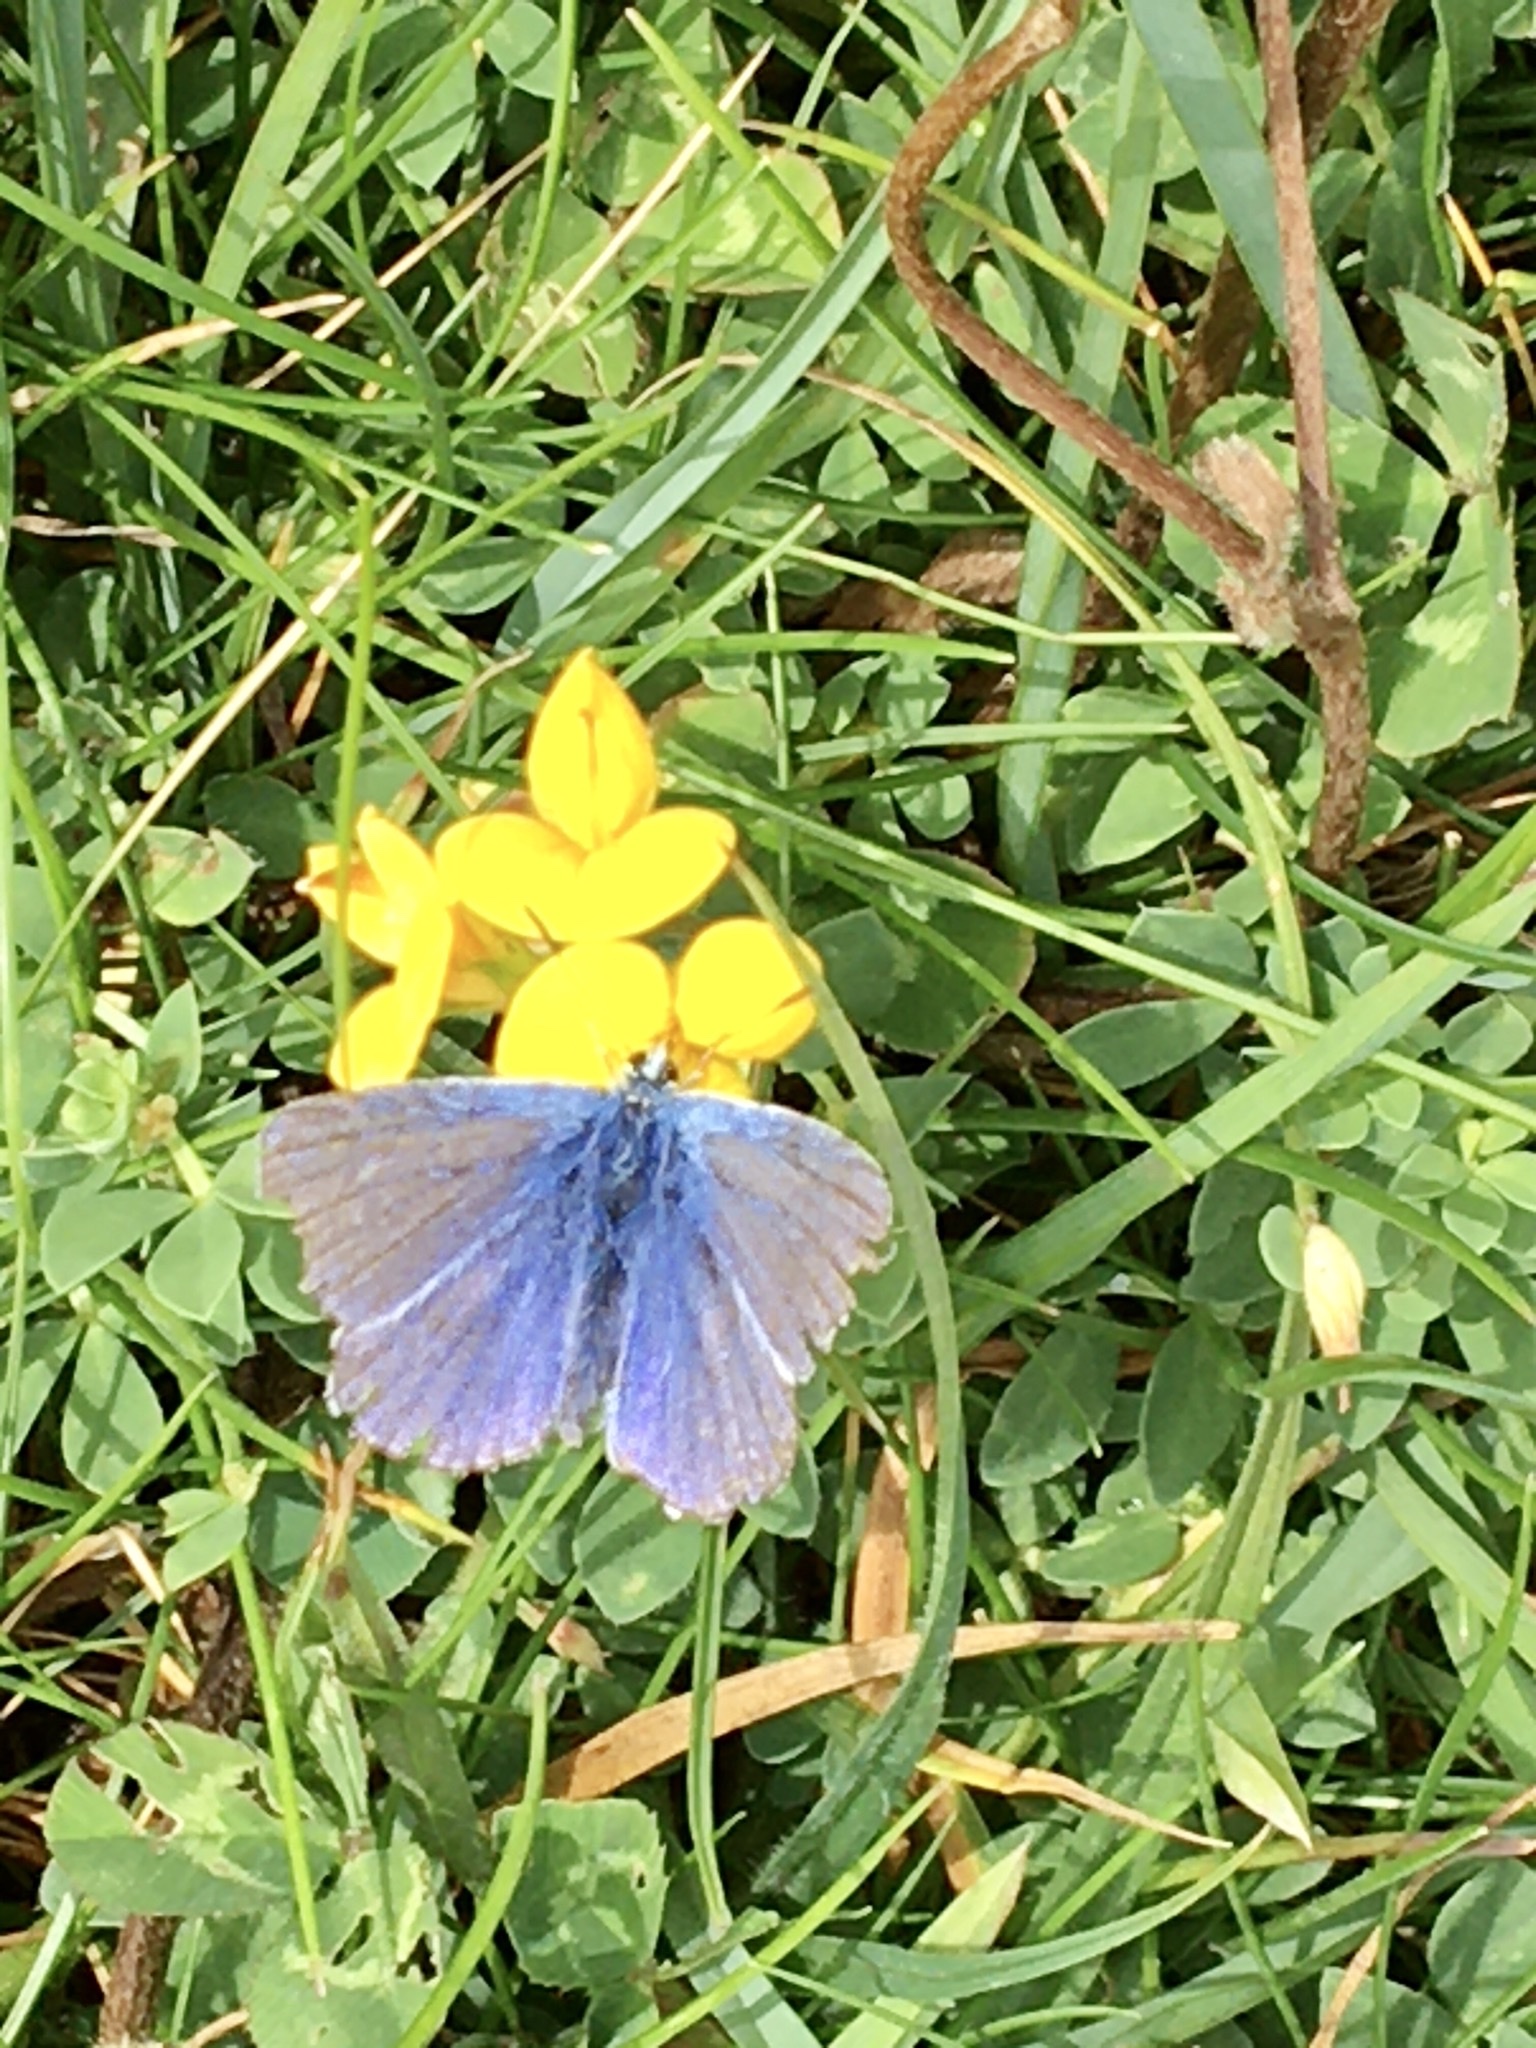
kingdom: Animalia
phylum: Arthropoda
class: Insecta
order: Lepidoptera
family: Lycaenidae
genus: Polyommatus
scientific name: Polyommatus icarus
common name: Common blue
